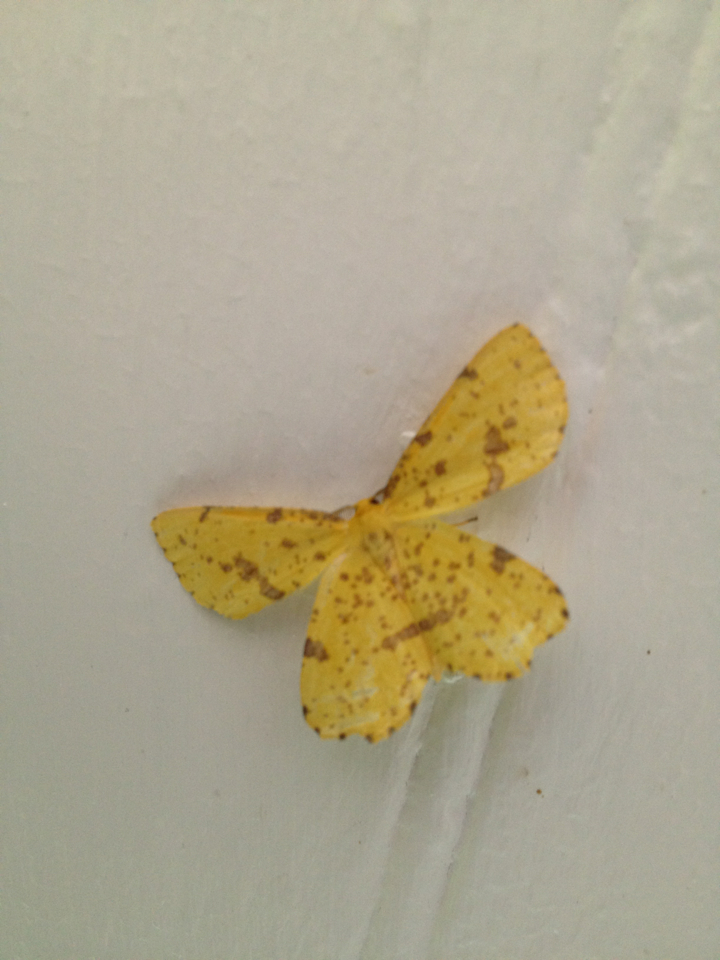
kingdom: Animalia
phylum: Arthropoda
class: Insecta
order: Lepidoptera
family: Geometridae
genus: Xanthotype
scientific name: Xanthotype
